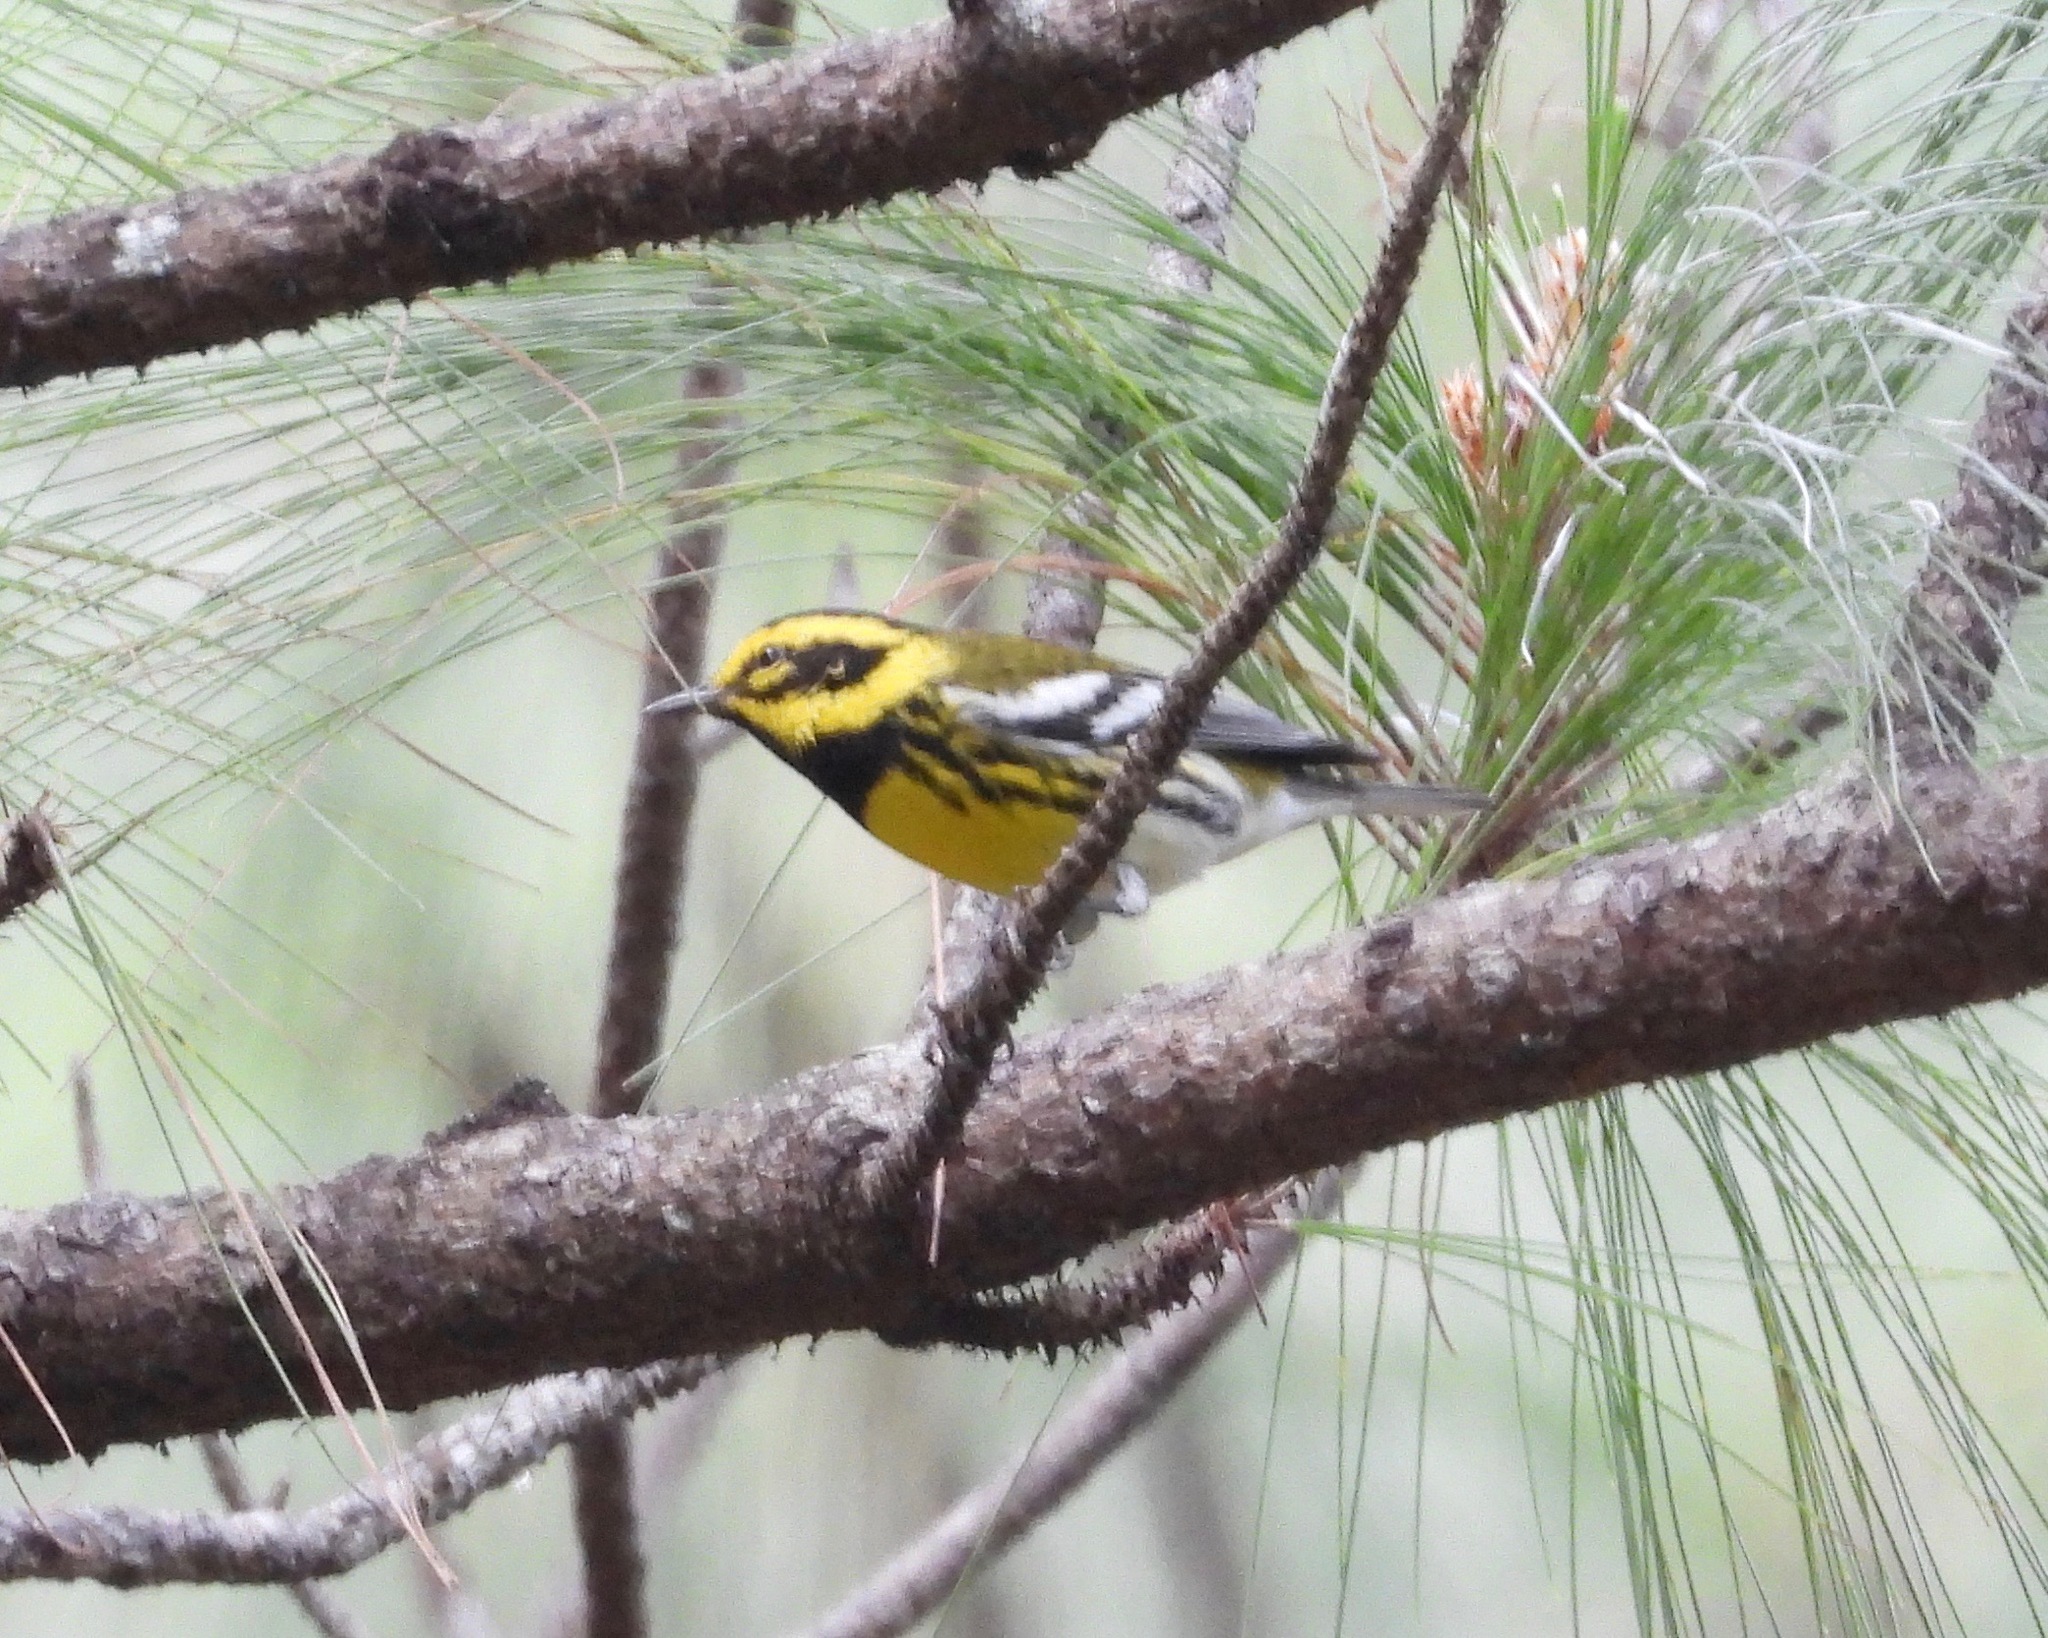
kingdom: Animalia
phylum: Chordata
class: Aves
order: Passeriformes
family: Parulidae
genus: Setophaga
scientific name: Setophaga townsendi
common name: Townsend's warbler
